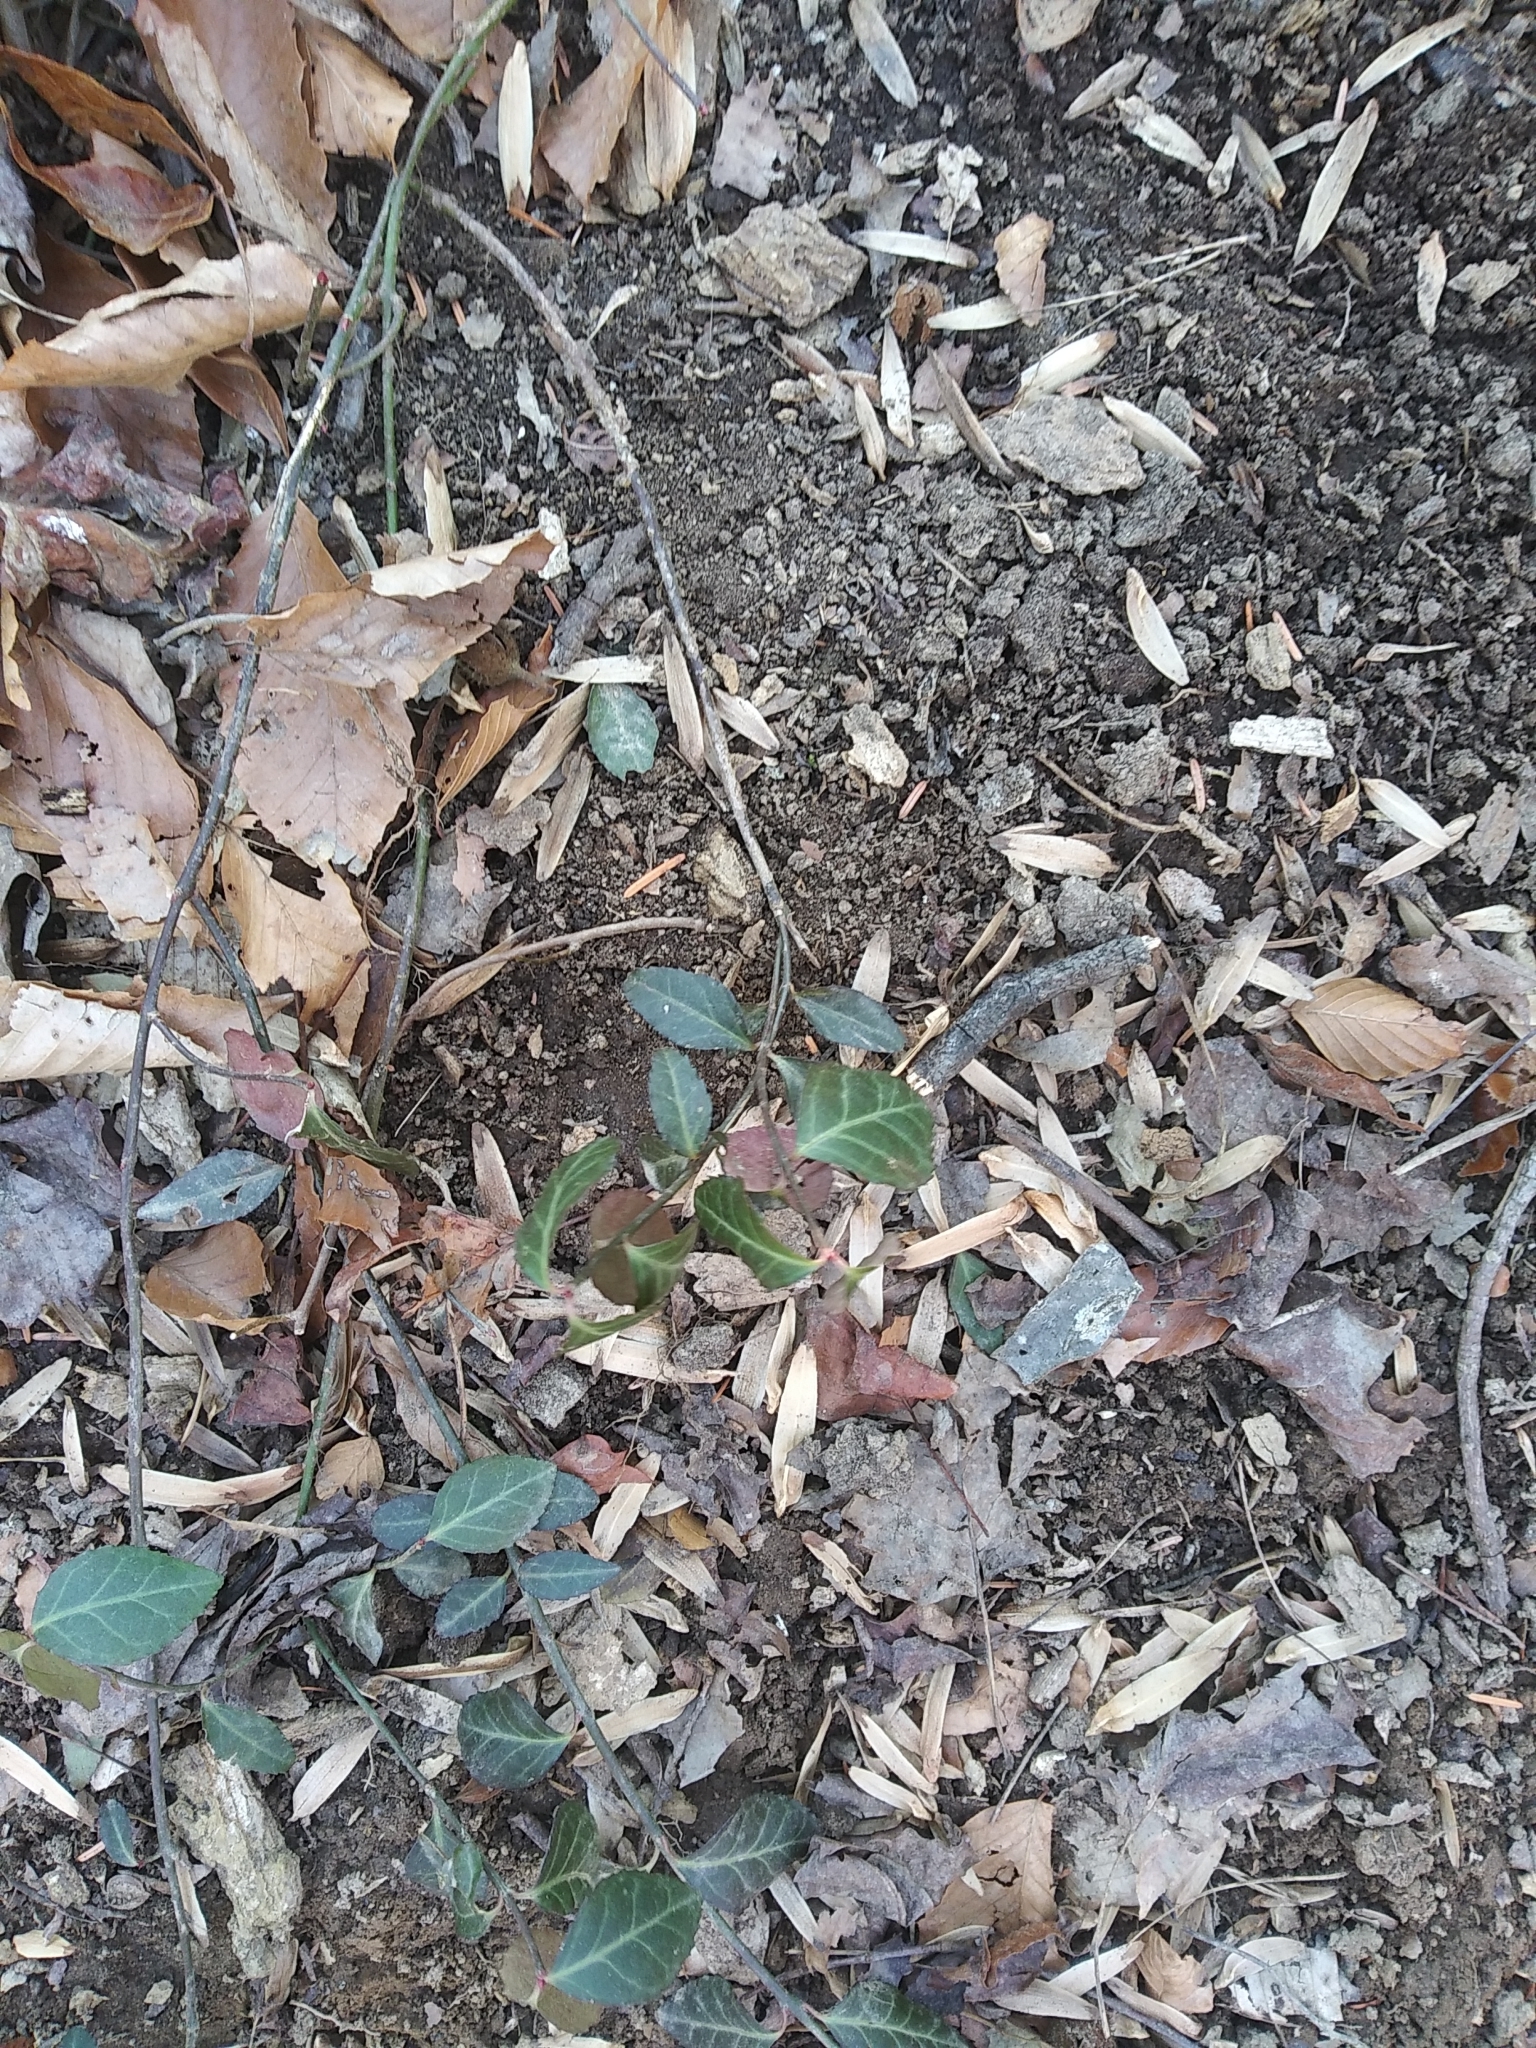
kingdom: Plantae
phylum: Tracheophyta
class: Magnoliopsida
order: Celastrales
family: Celastraceae
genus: Euonymus
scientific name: Euonymus fortunei
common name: Climbing euonymus
